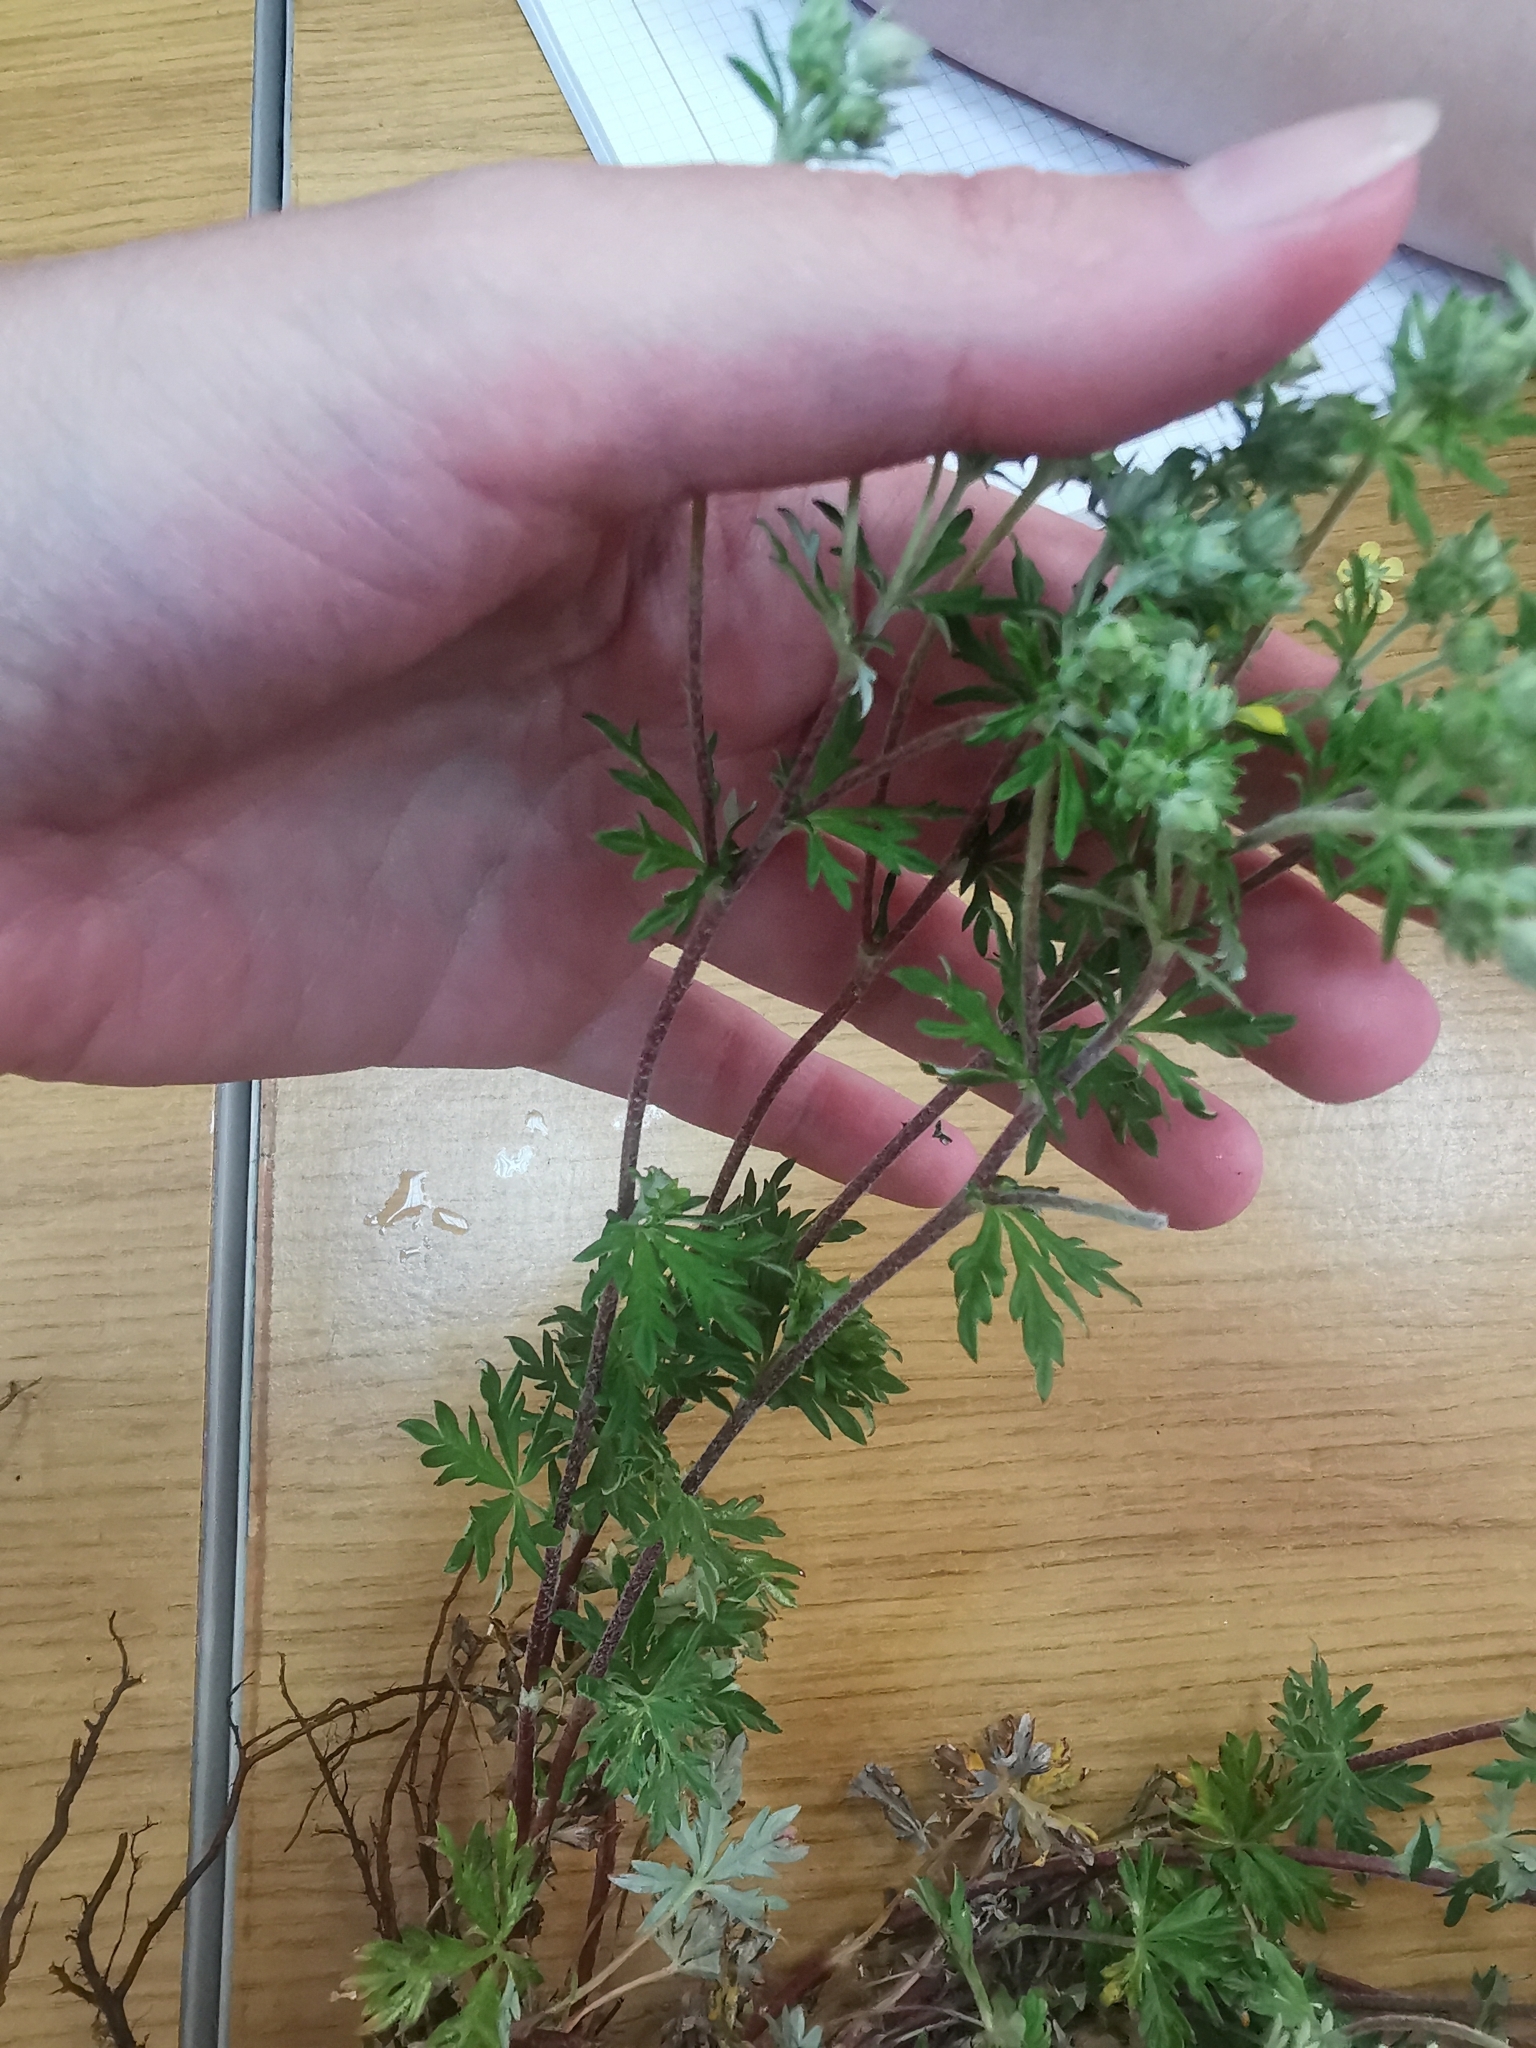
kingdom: Plantae
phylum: Tracheophyta
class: Magnoliopsida
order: Rosales
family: Rosaceae
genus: Potentilla
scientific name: Potentilla argentea
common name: Hoary cinquefoil
